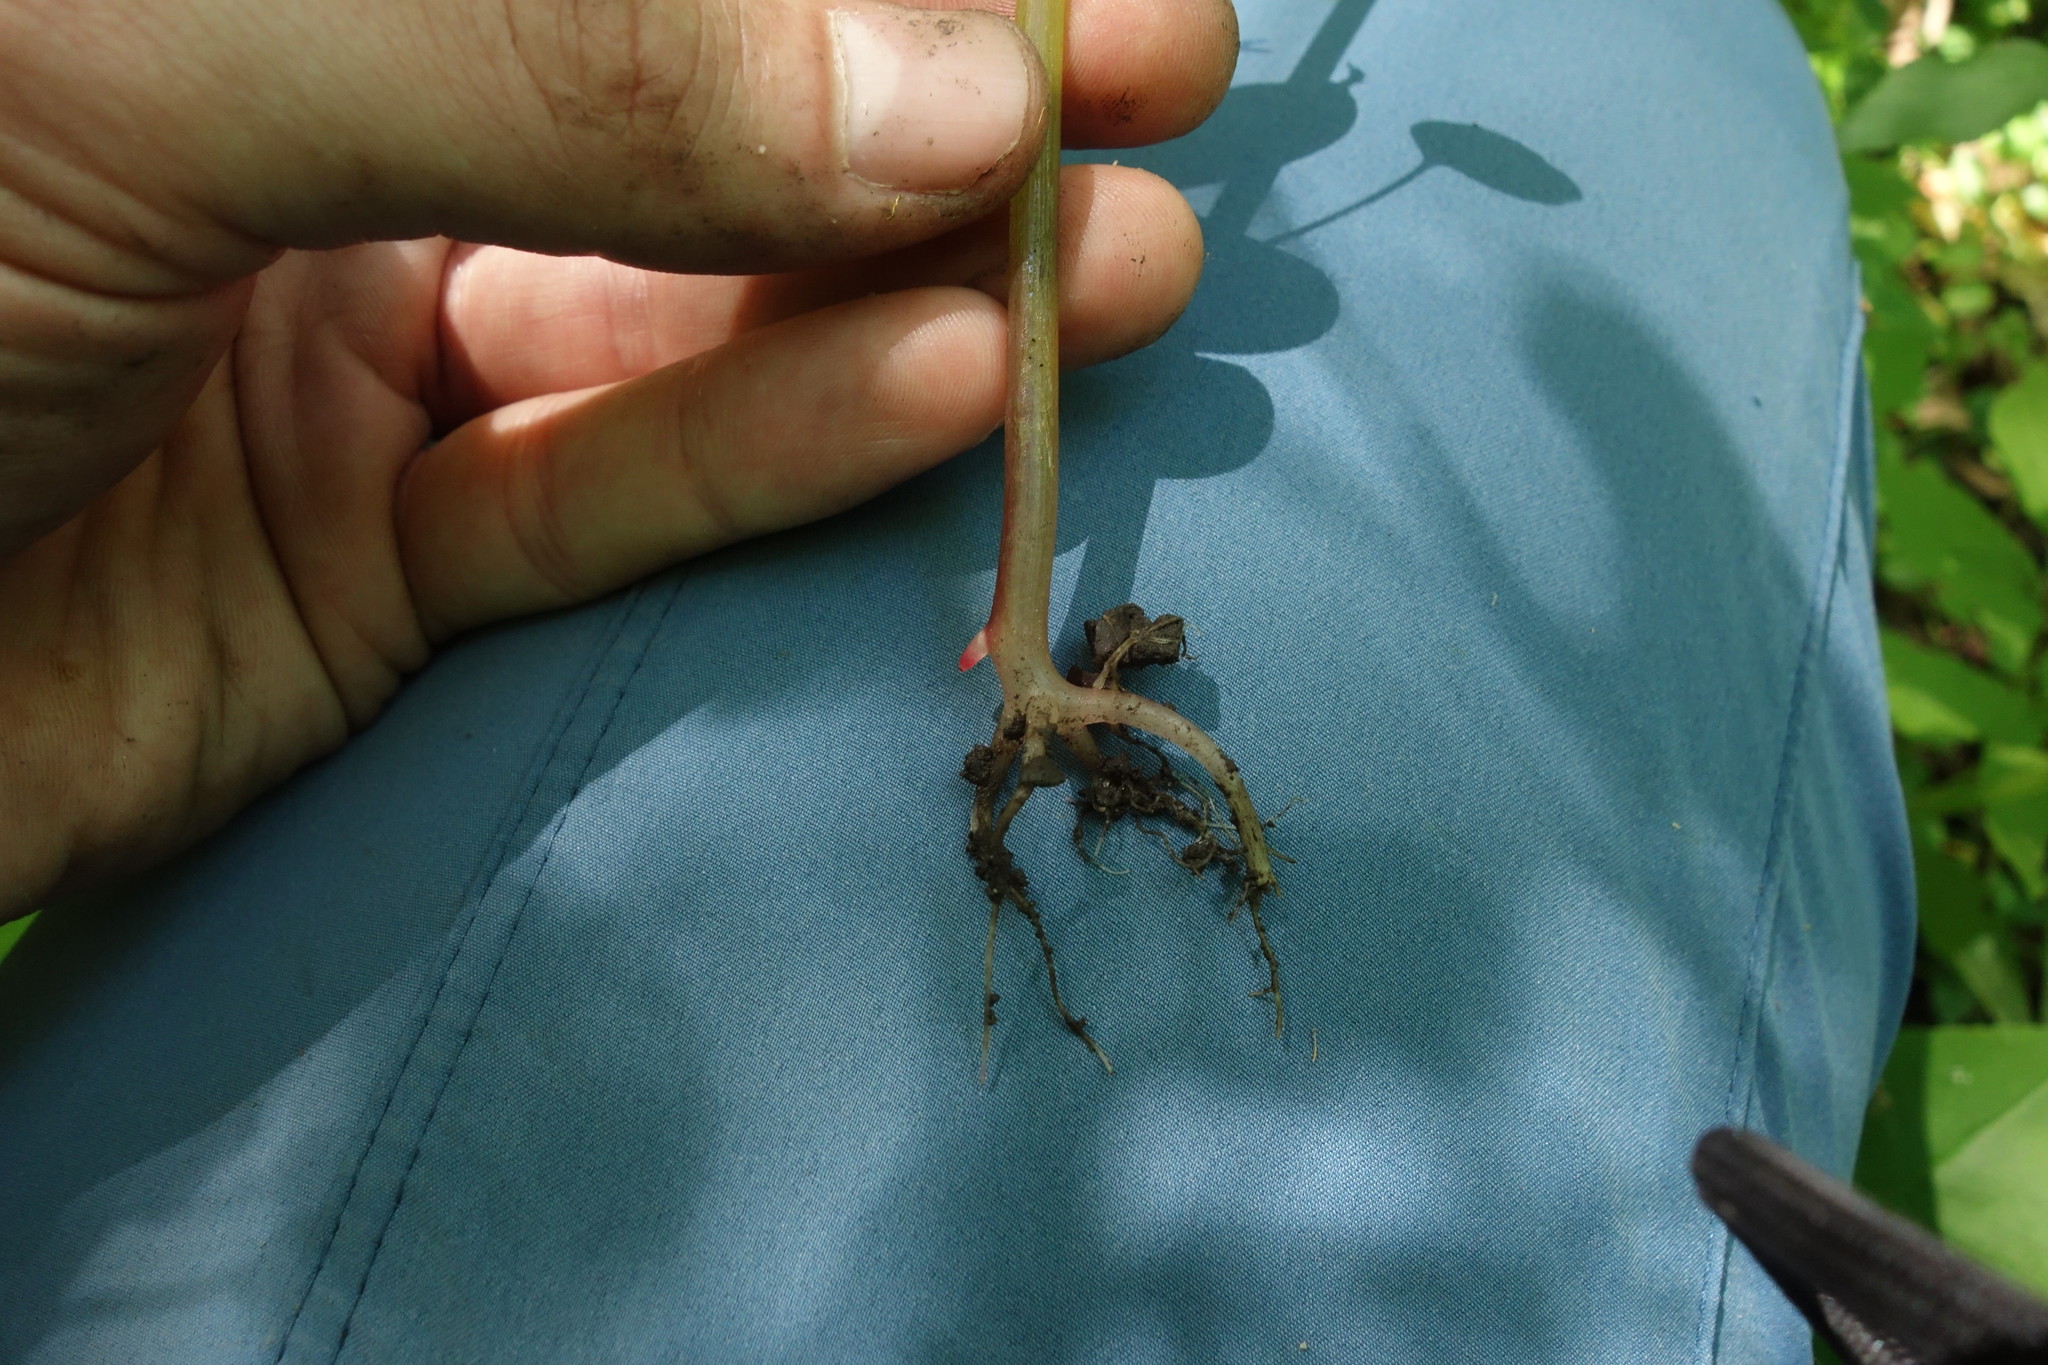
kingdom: Plantae
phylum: Tracheophyta
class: Magnoliopsida
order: Ericales
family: Balsaminaceae
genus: Impatiens
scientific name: Impatiens noli-tangere
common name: Touch-me-not balsam
